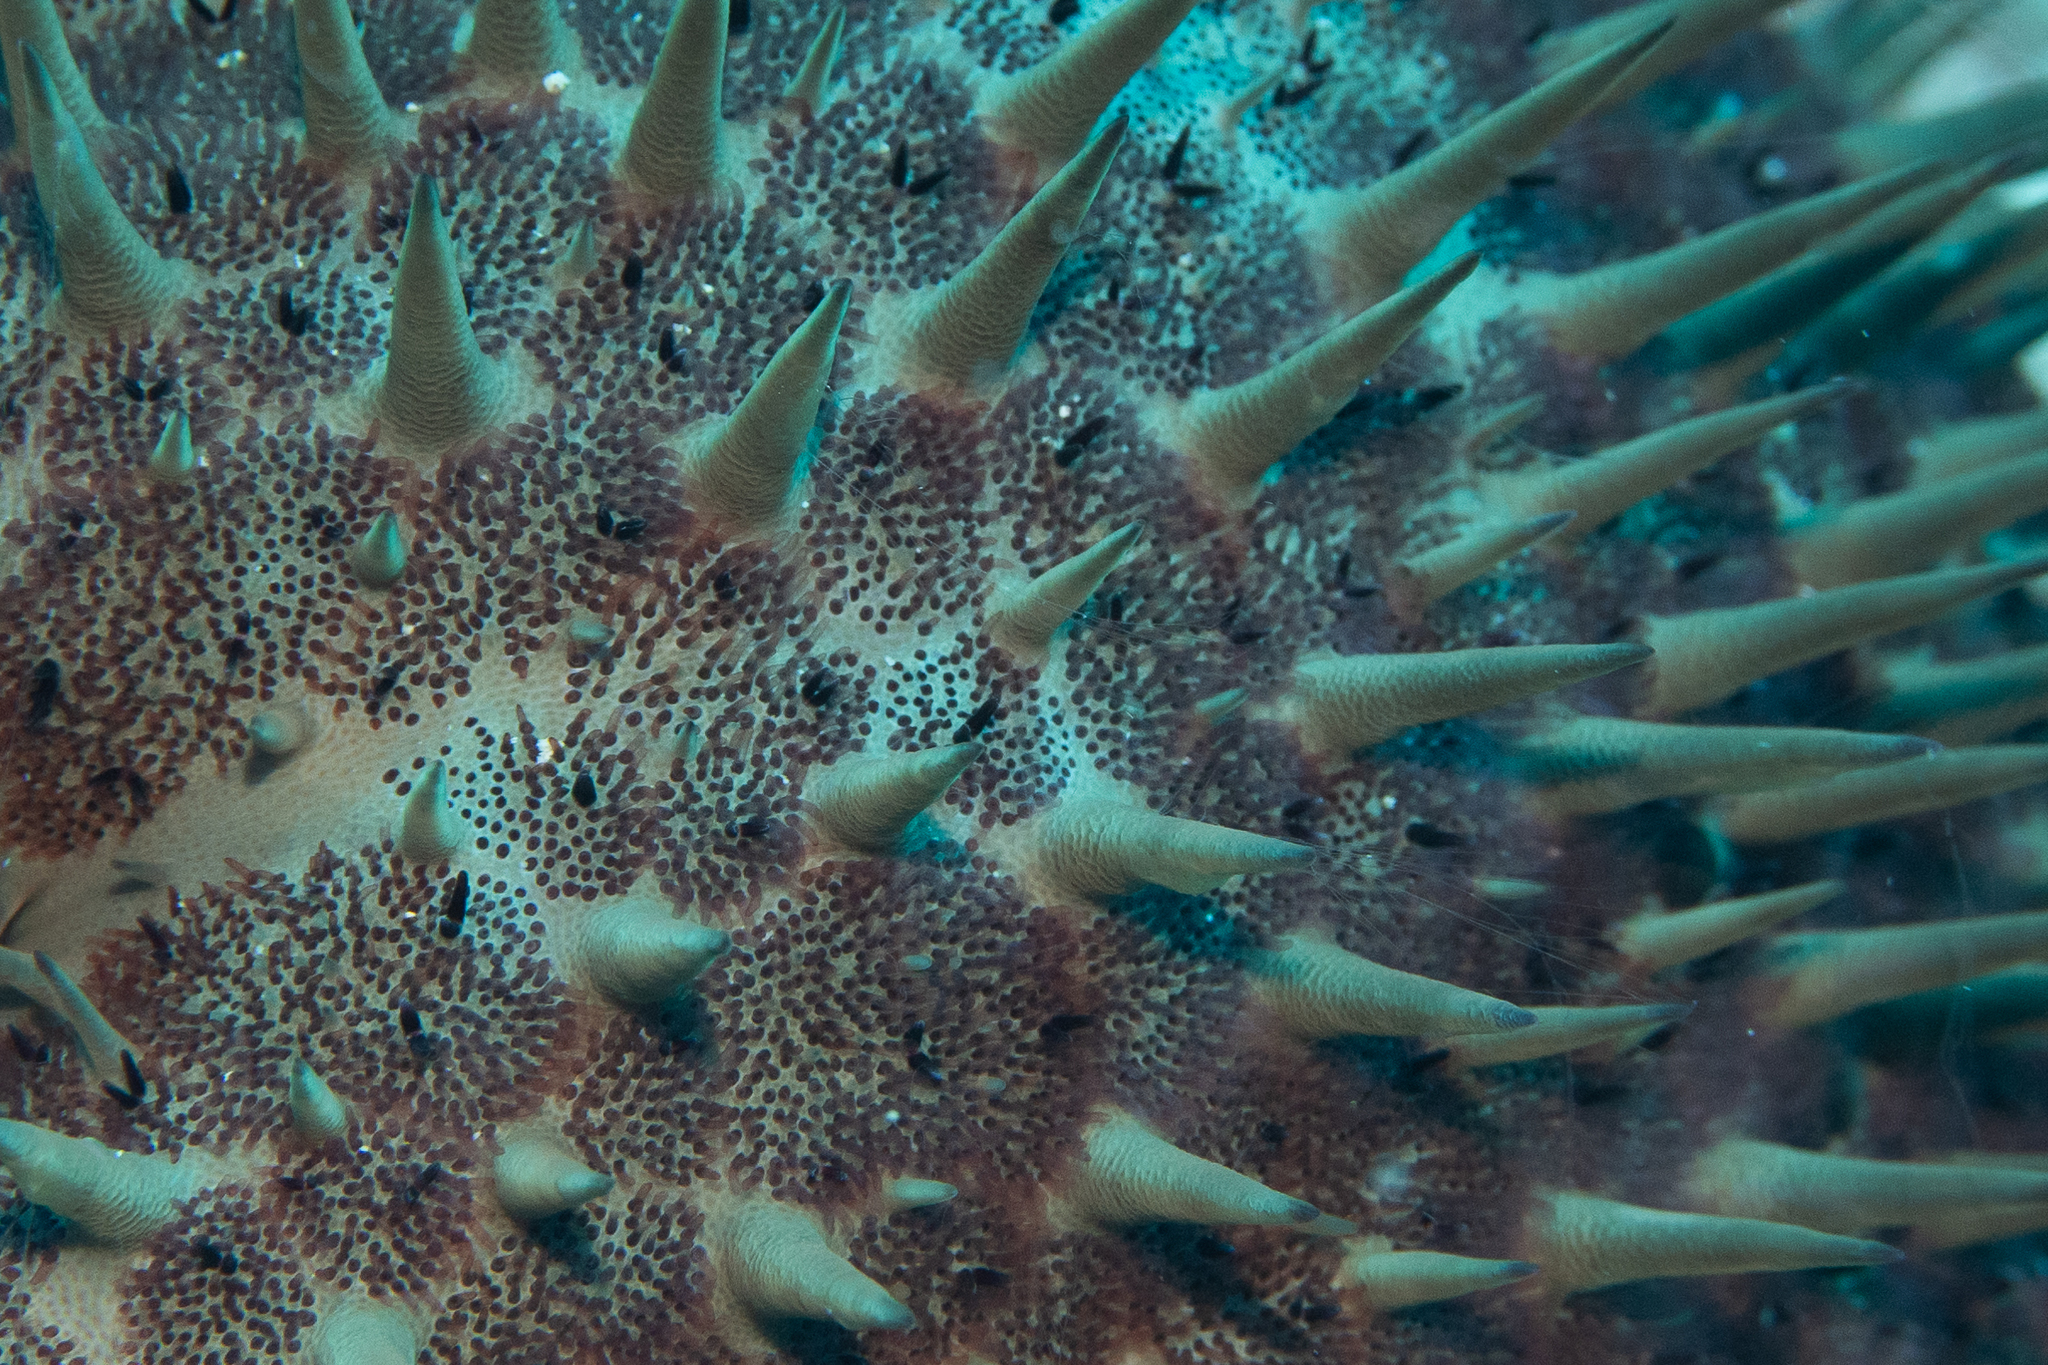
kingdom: Animalia
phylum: Echinodermata
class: Asteroidea
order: Valvatida
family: Acanthasteridae
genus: Acanthaster
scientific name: Acanthaster planci
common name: Crown-of-thorns
